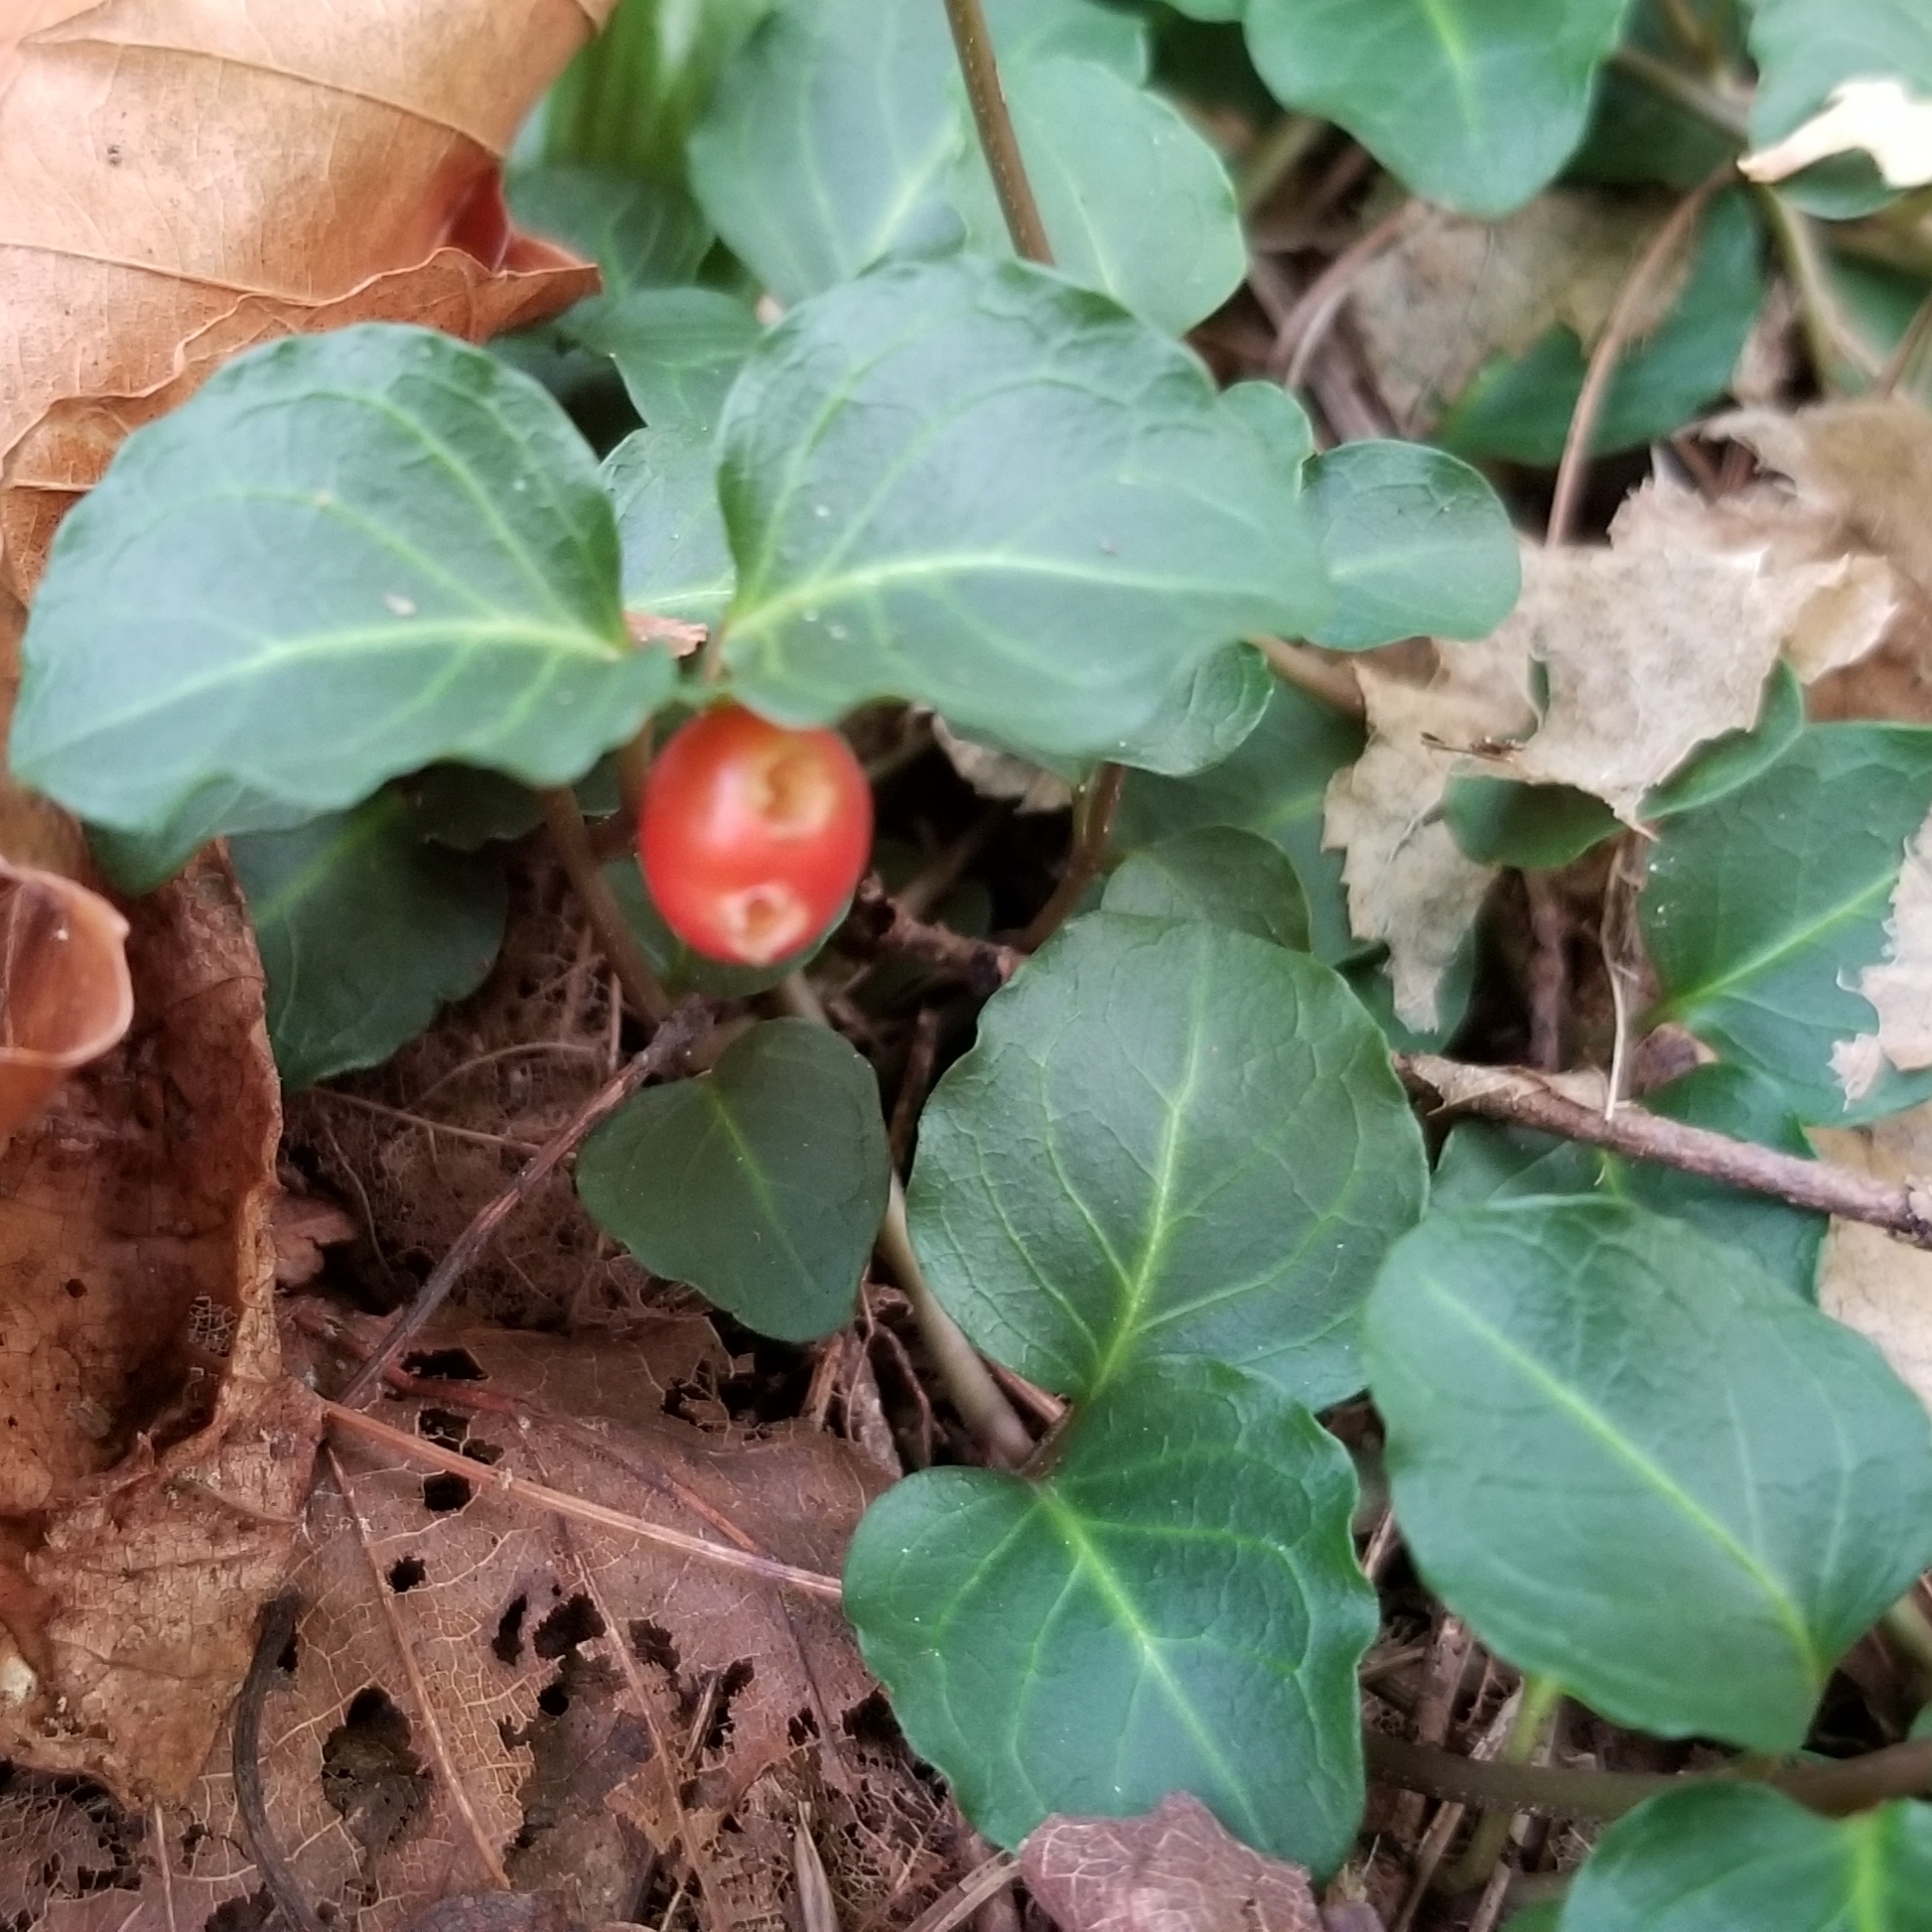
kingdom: Plantae
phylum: Tracheophyta
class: Magnoliopsida
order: Gentianales
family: Rubiaceae
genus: Mitchella
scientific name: Mitchella repens
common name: Partridge-berry
